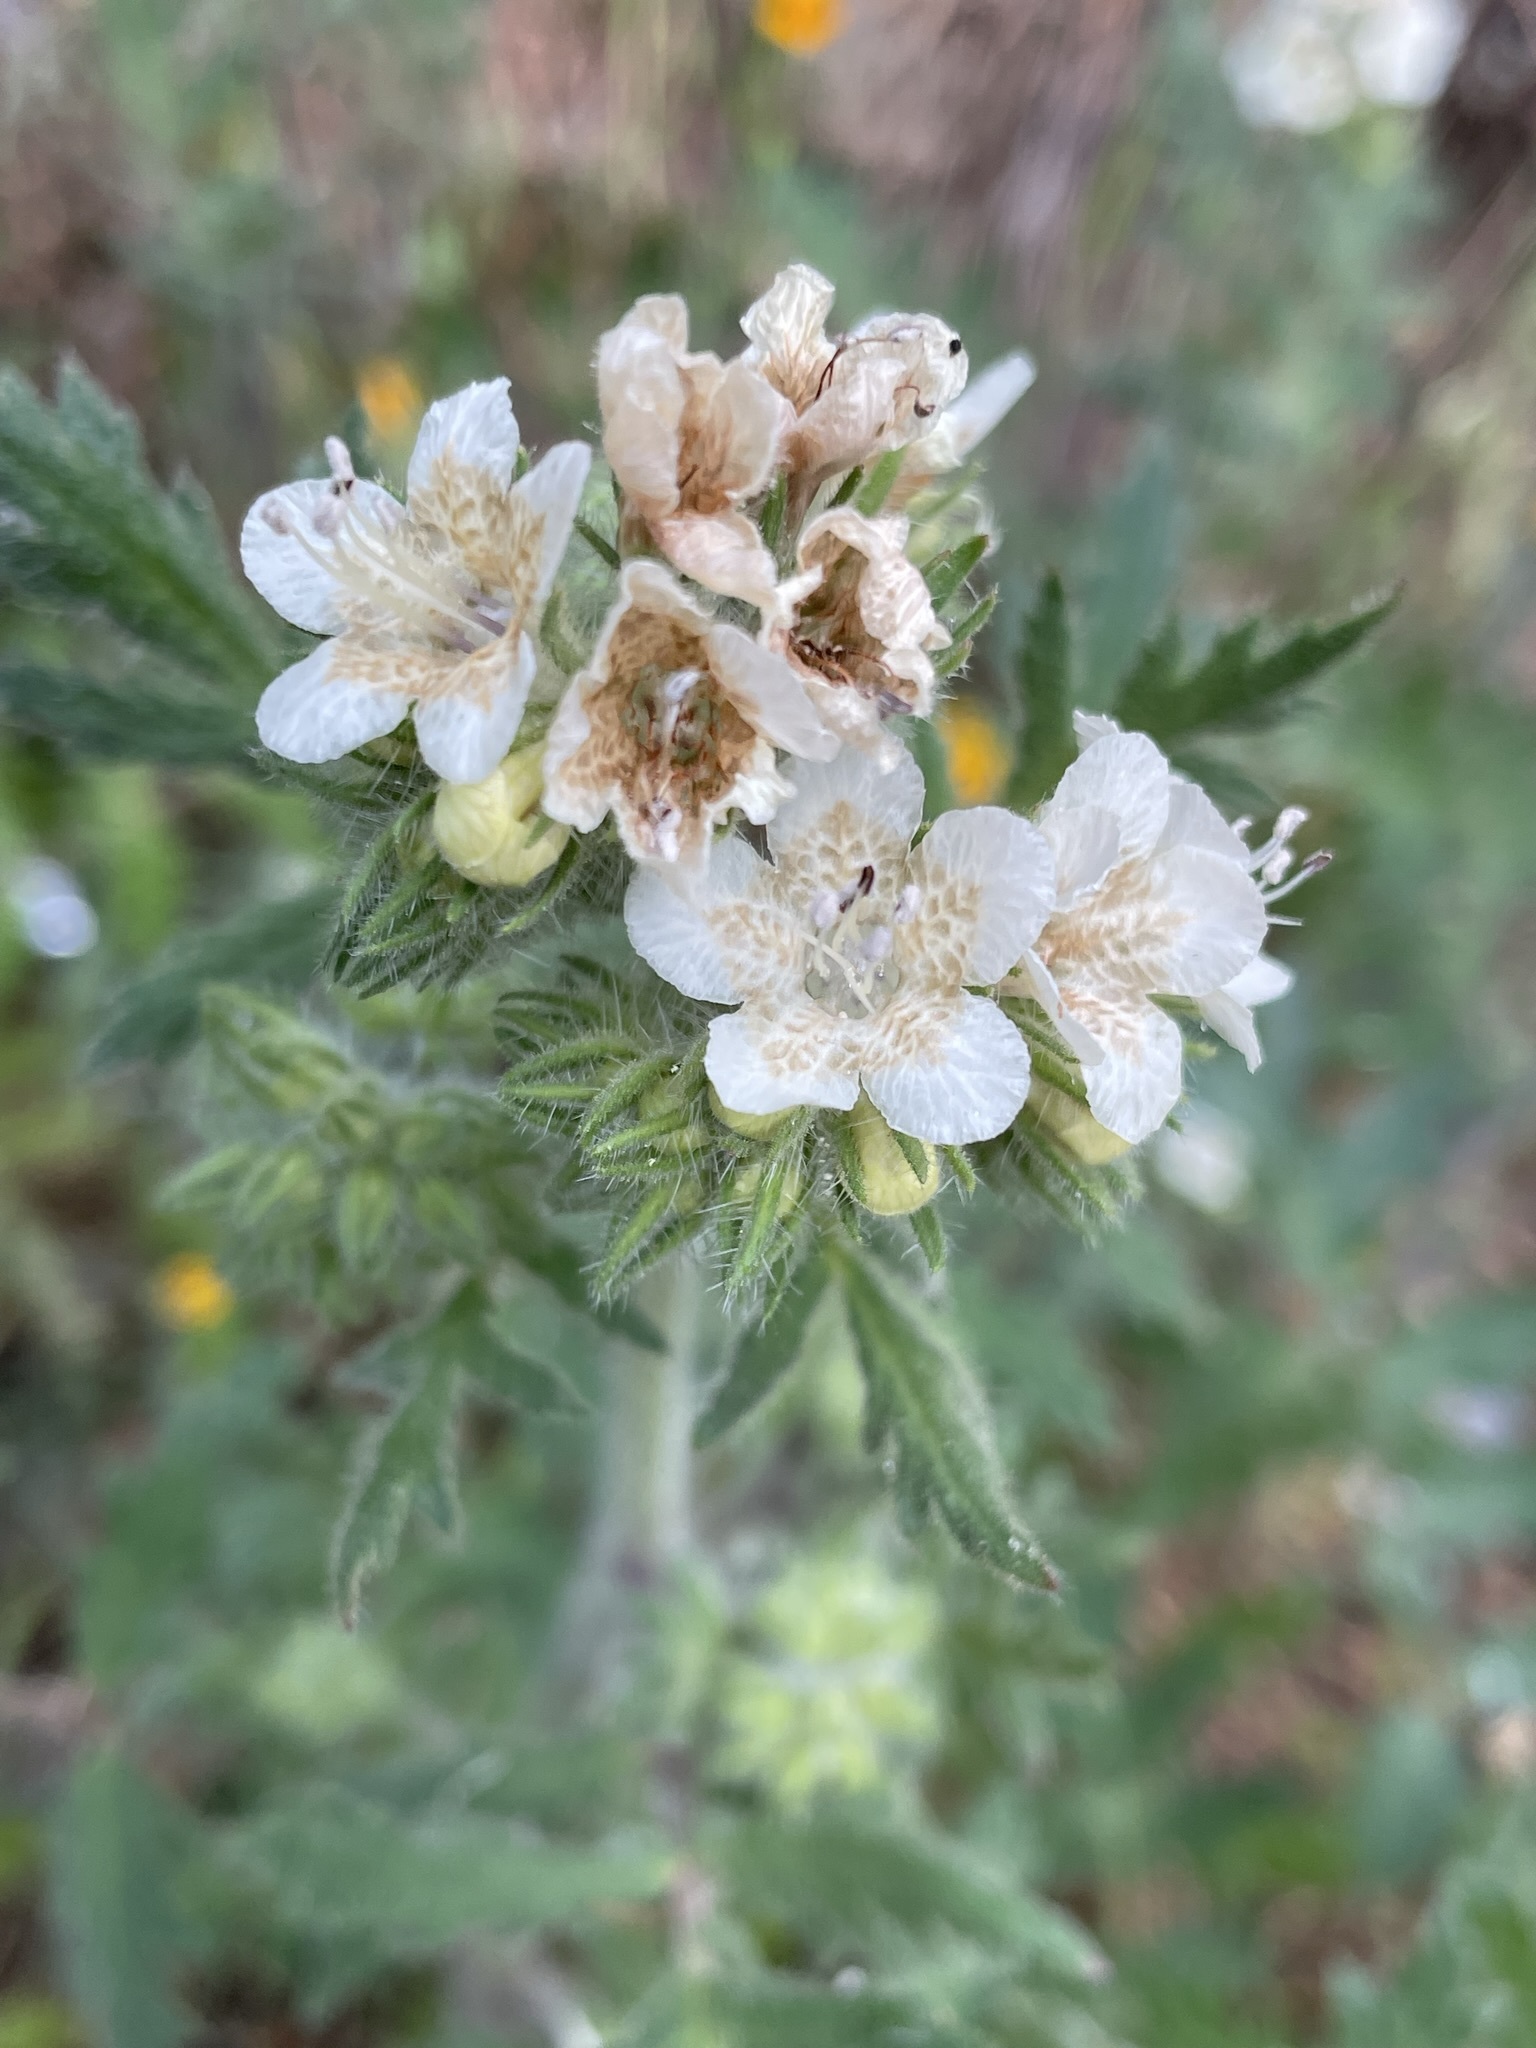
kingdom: Plantae
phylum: Tracheophyta
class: Magnoliopsida
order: Boraginales
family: Hydrophyllaceae
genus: Phacelia
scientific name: Phacelia cicutaria
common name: Caterpillar phacelia
